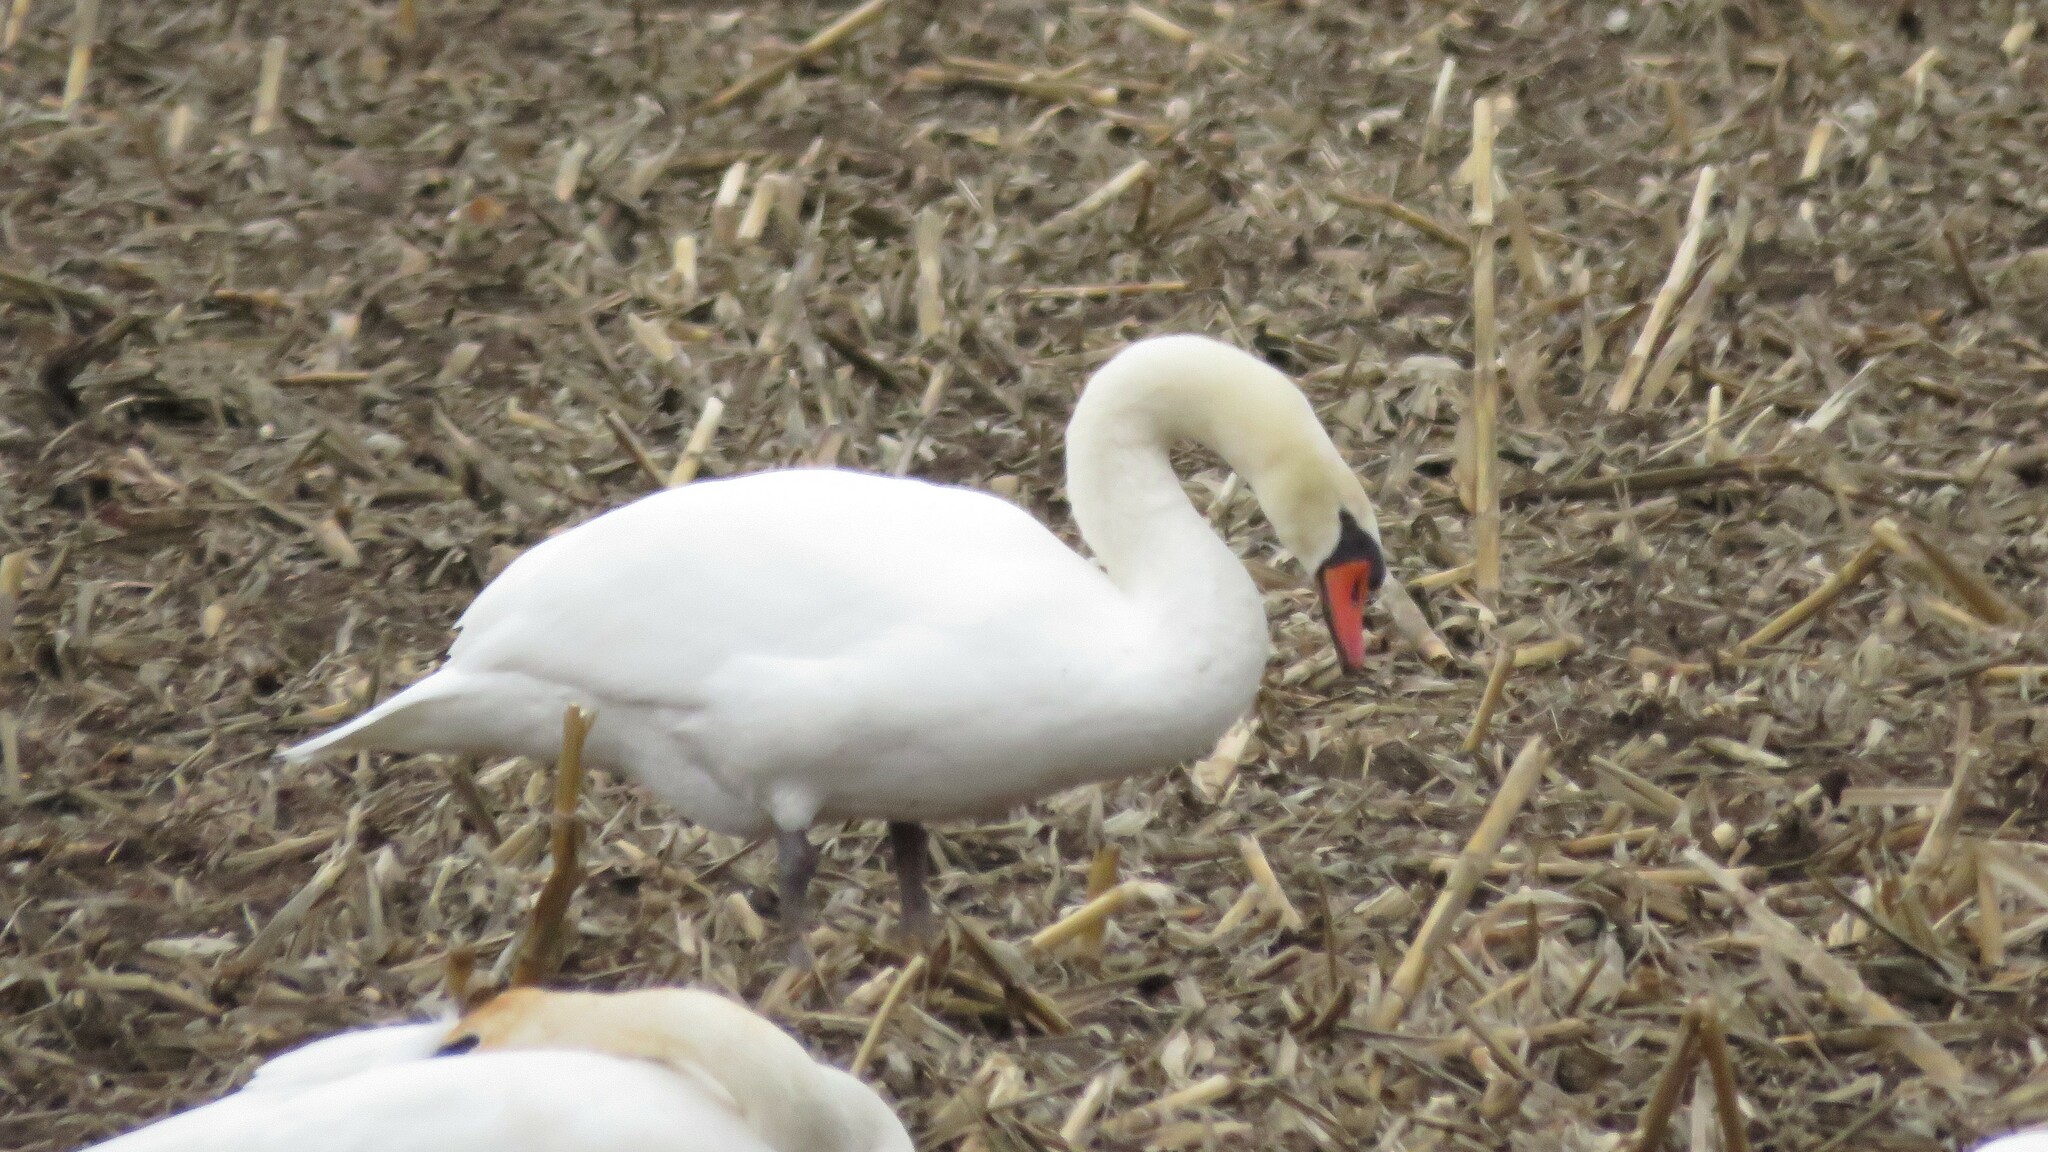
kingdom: Animalia
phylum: Chordata
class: Aves
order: Anseriformes
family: Anatidae
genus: Cygnus
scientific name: Cygnus olor
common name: Mute swan
